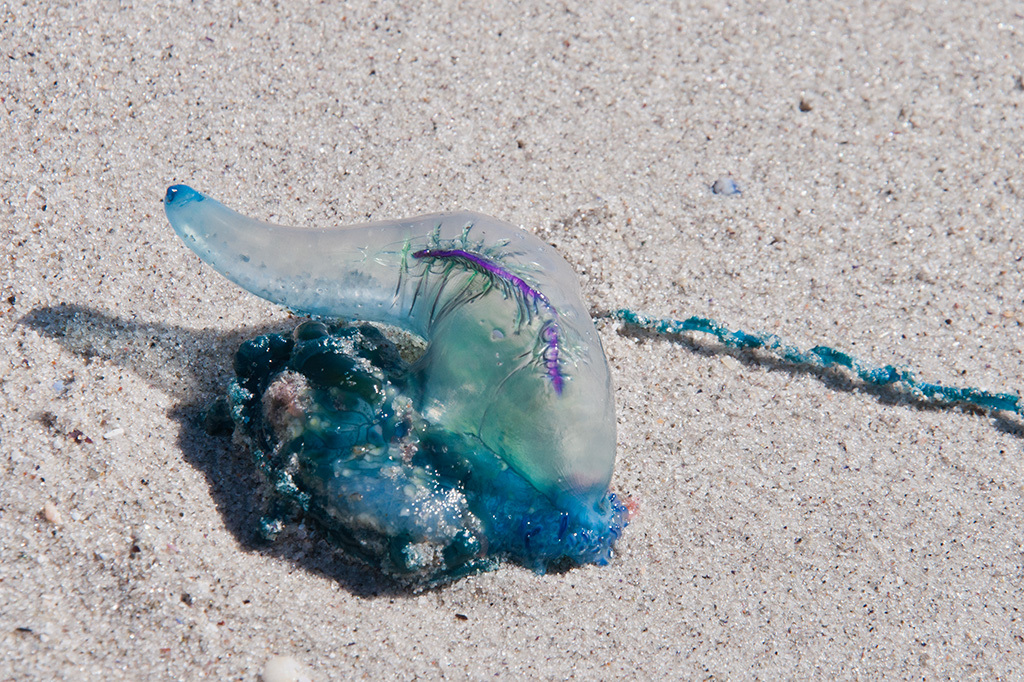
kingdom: Animalia
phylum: Cnidaria
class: Hydrozoa
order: Siphonophorae
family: Physaliidae
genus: Physalia
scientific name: Physalia physalis
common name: Portuguese man-of-war
